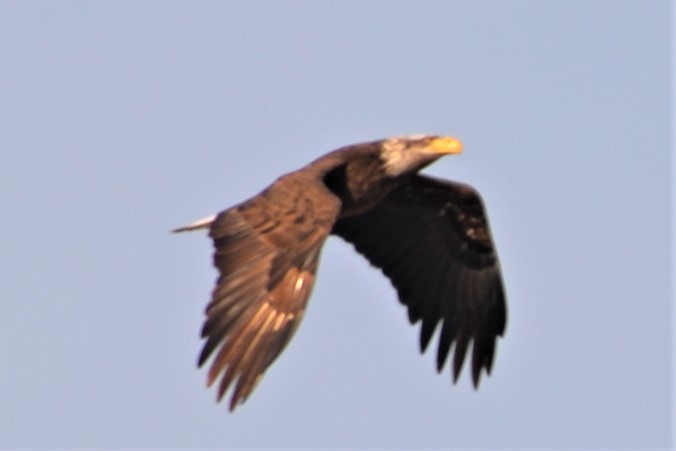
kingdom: Animalia
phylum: Chordata
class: Aves
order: Accipitriformes
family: Accipitridae
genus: Haliaeetus
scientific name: Haliaeetus leucocephalus
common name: Bald eagle
